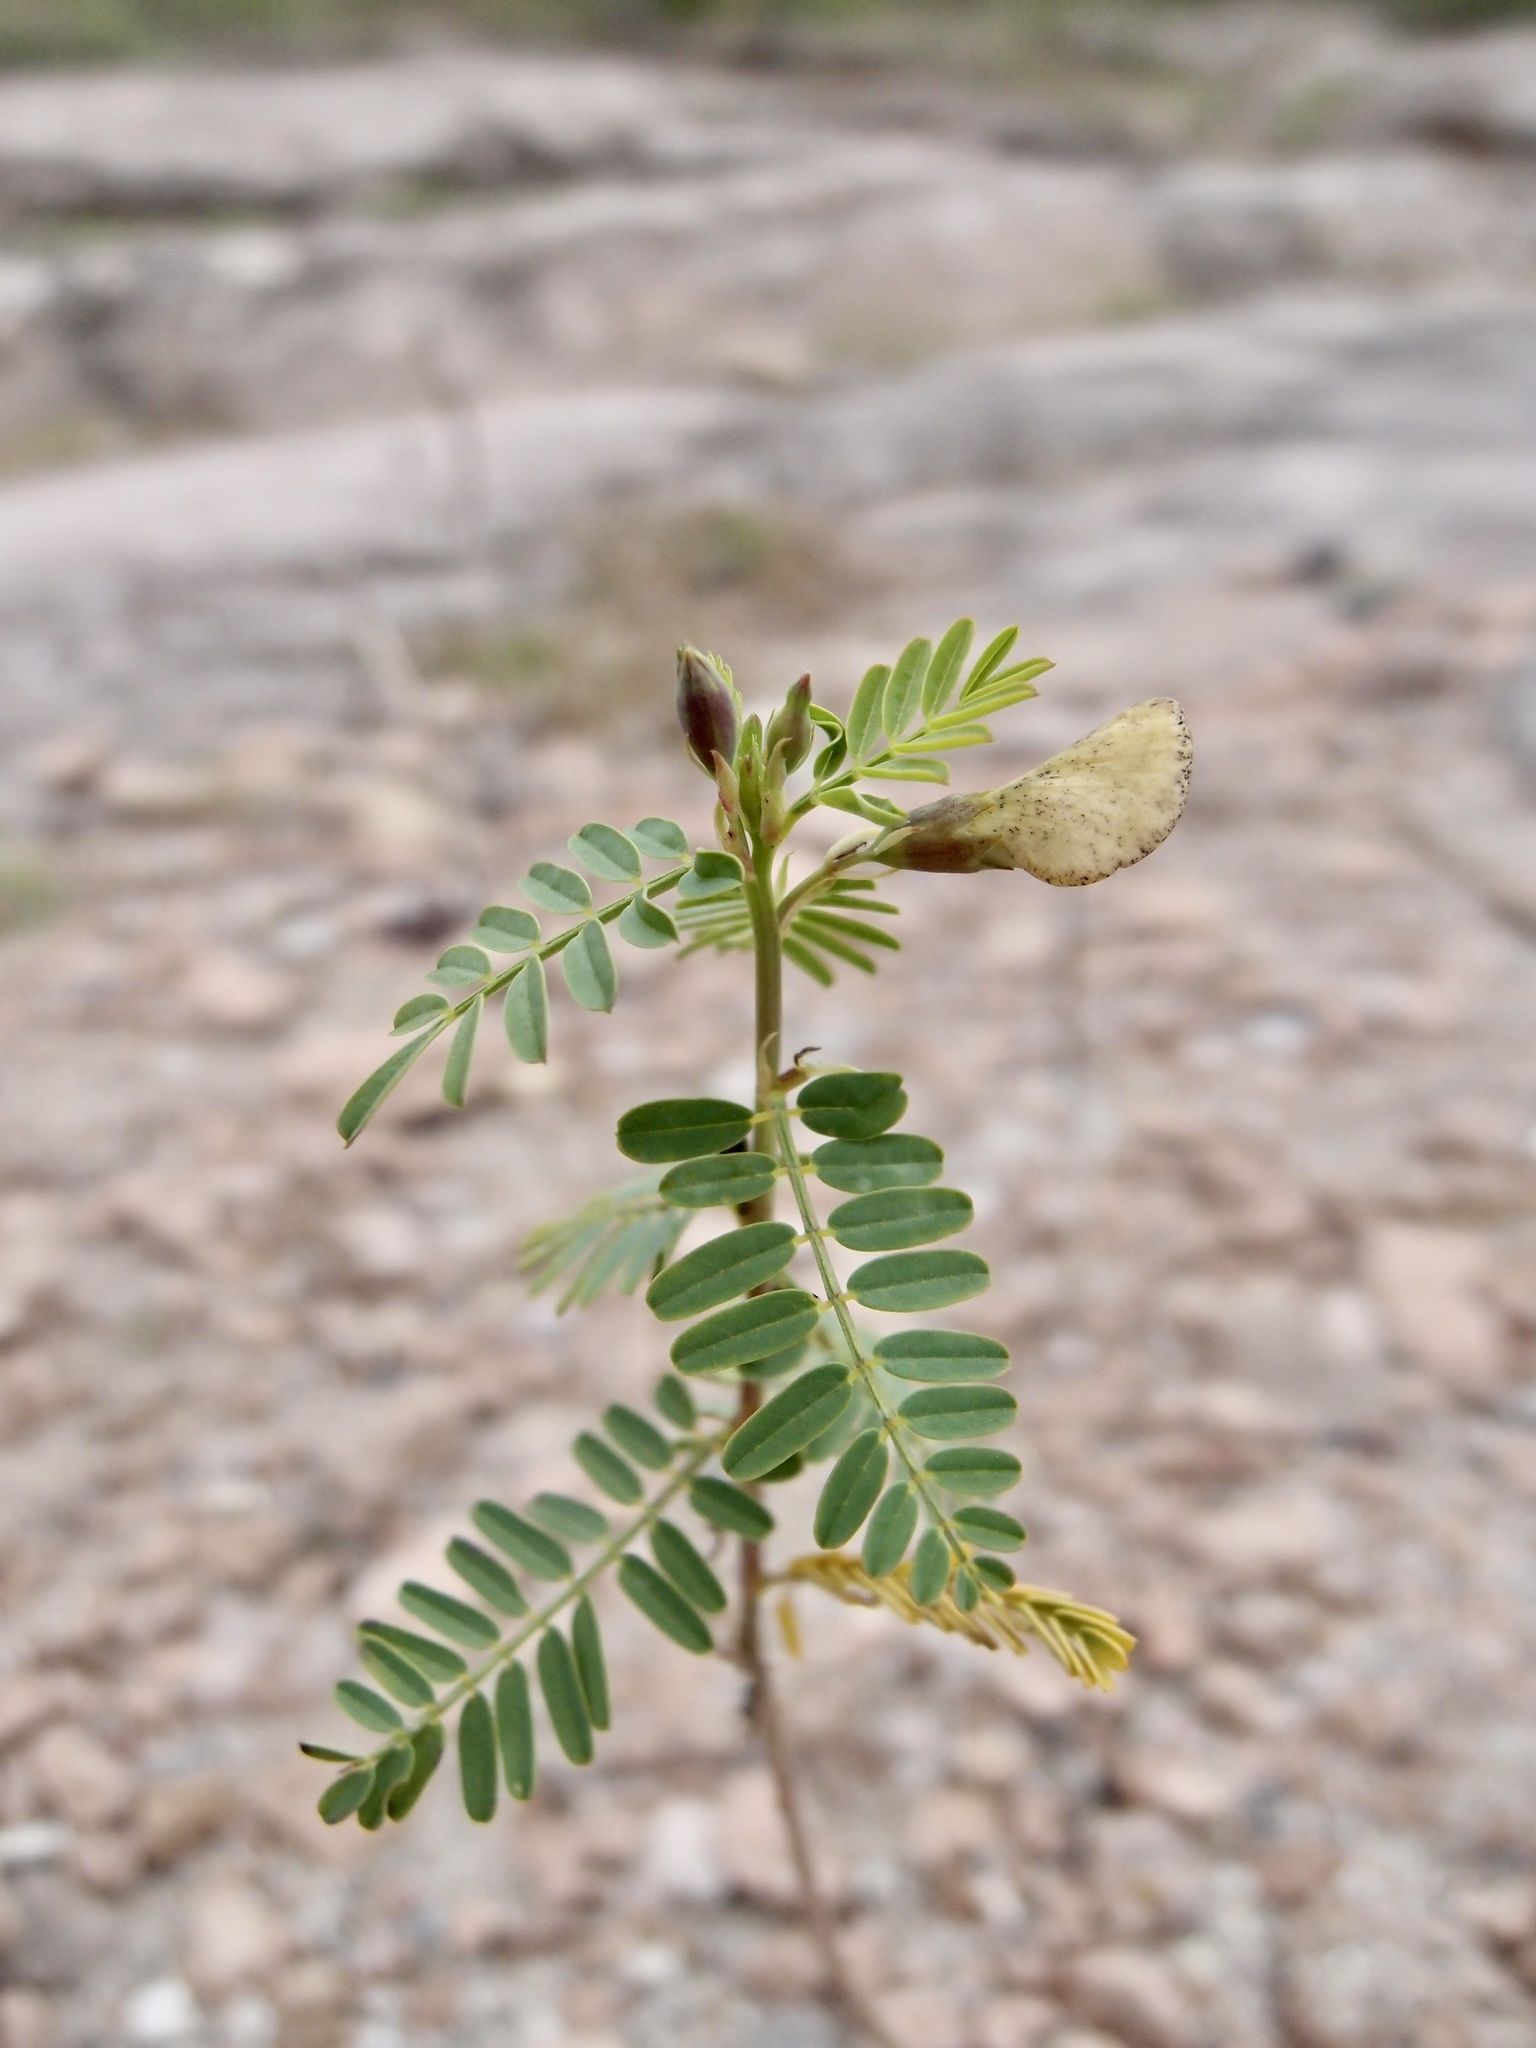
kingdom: Plantae
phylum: Tracheophyta
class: Magnoliopsida
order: Fabales
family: Fabaceae
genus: Sesbania
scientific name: Sesbania herbacea
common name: Bigpod sesbania
